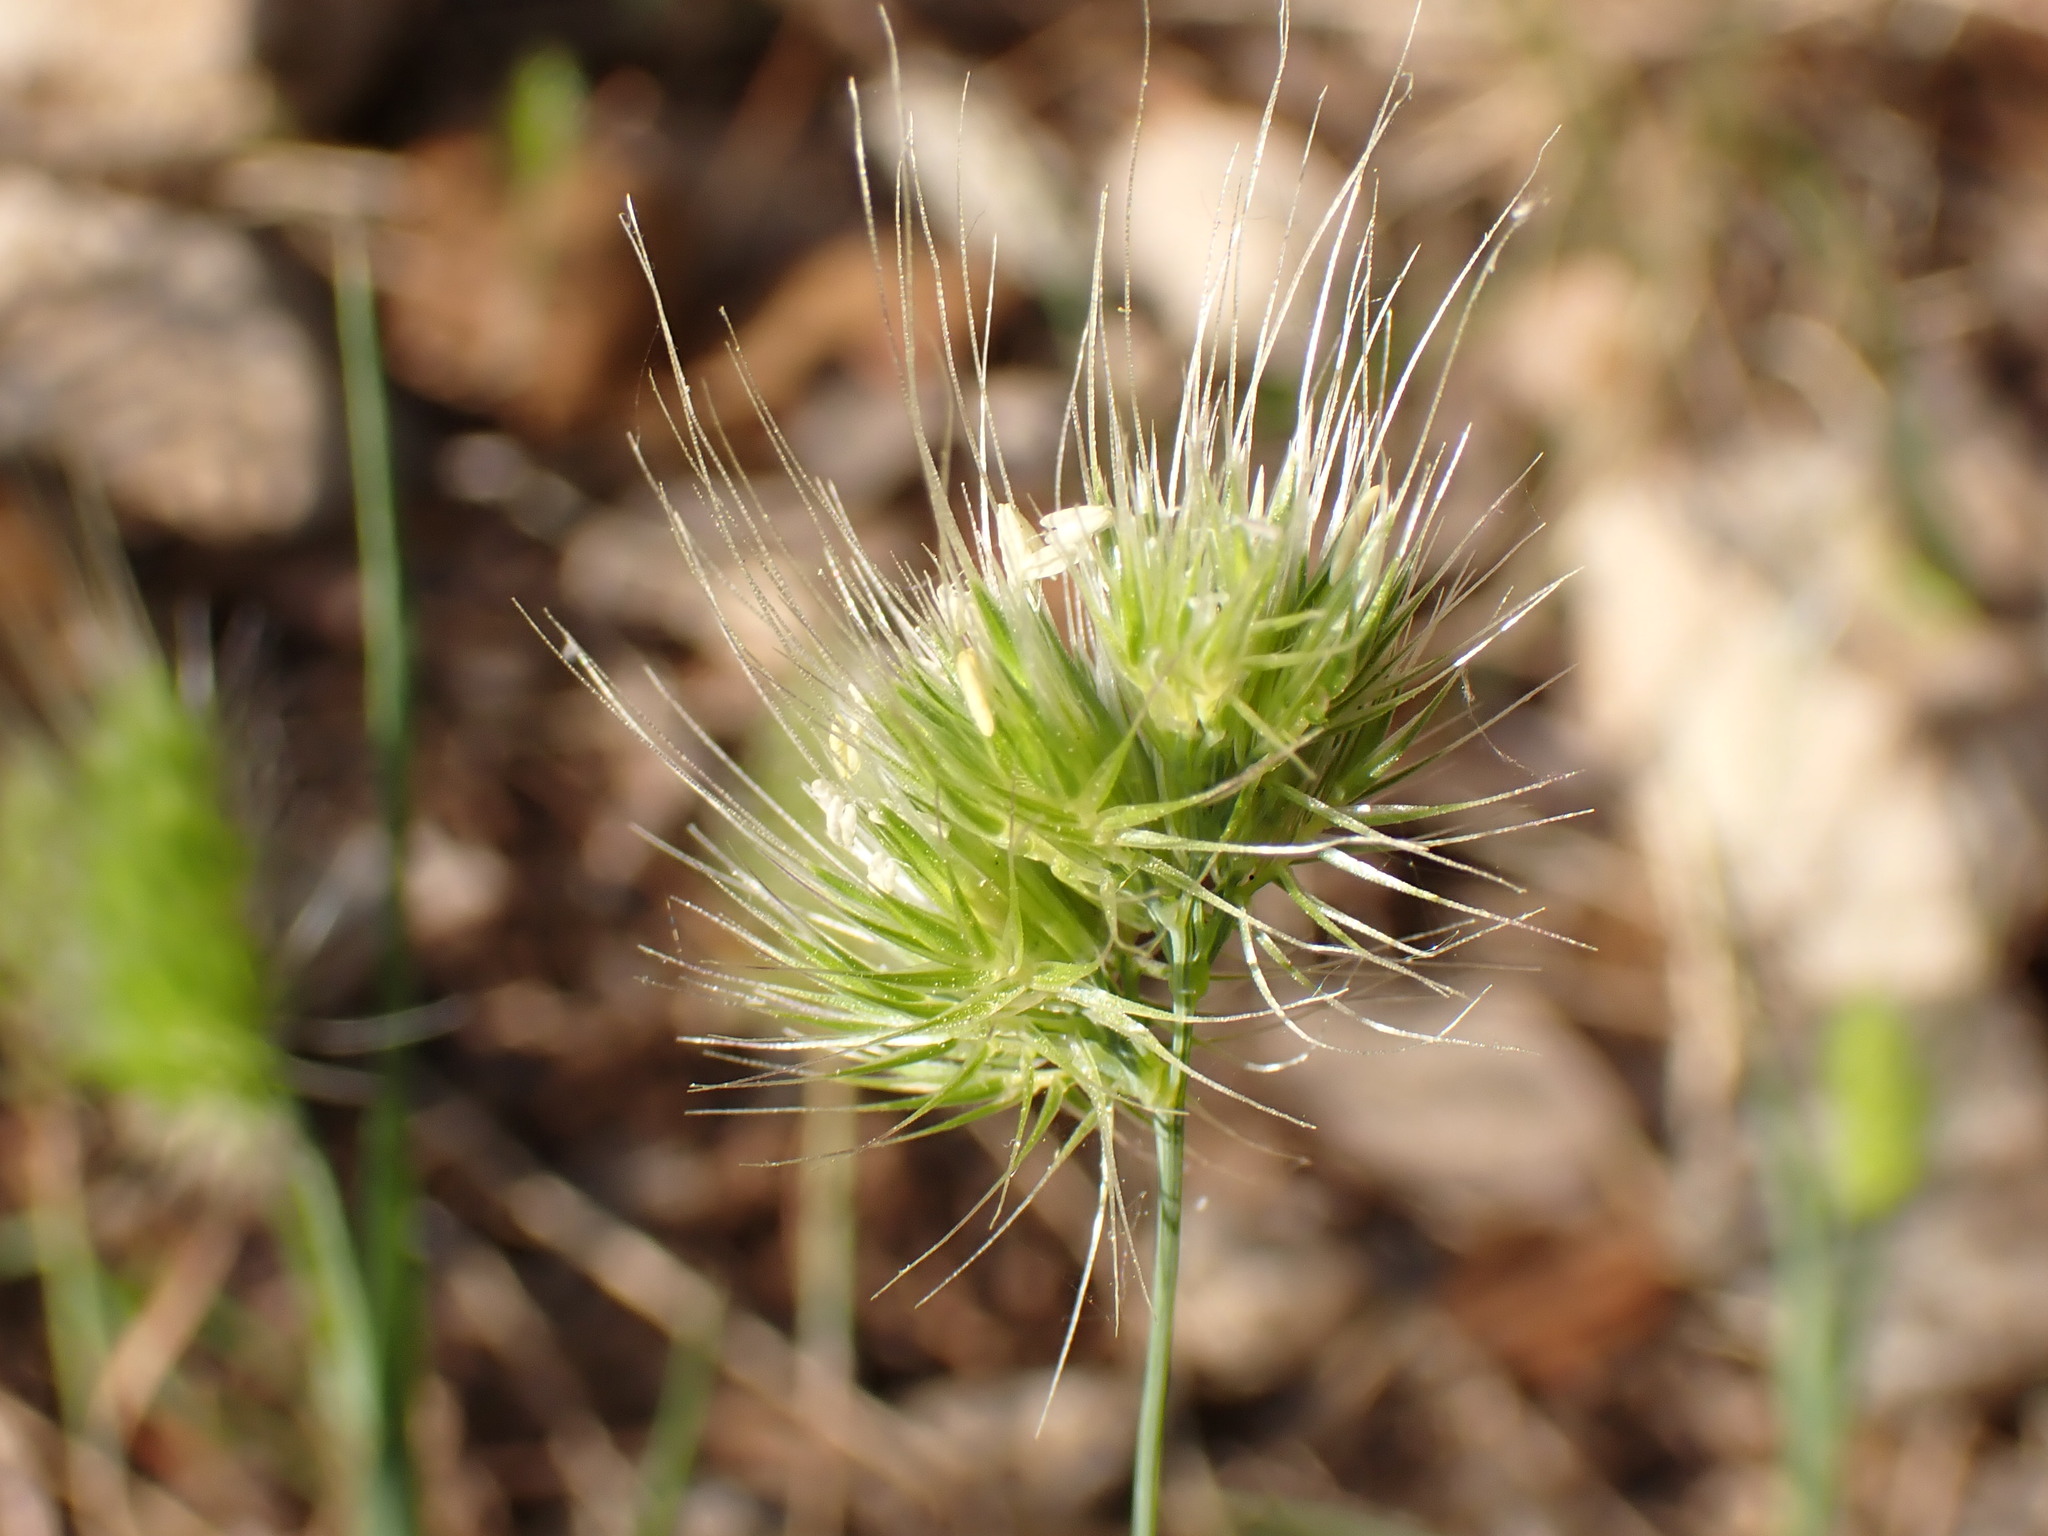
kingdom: Plantae
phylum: Tracheophyta
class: Liliopsida
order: Poales
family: Poaceae
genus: Cynosurus
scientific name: Cynosurus echinatus
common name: Rough dog's-tail
